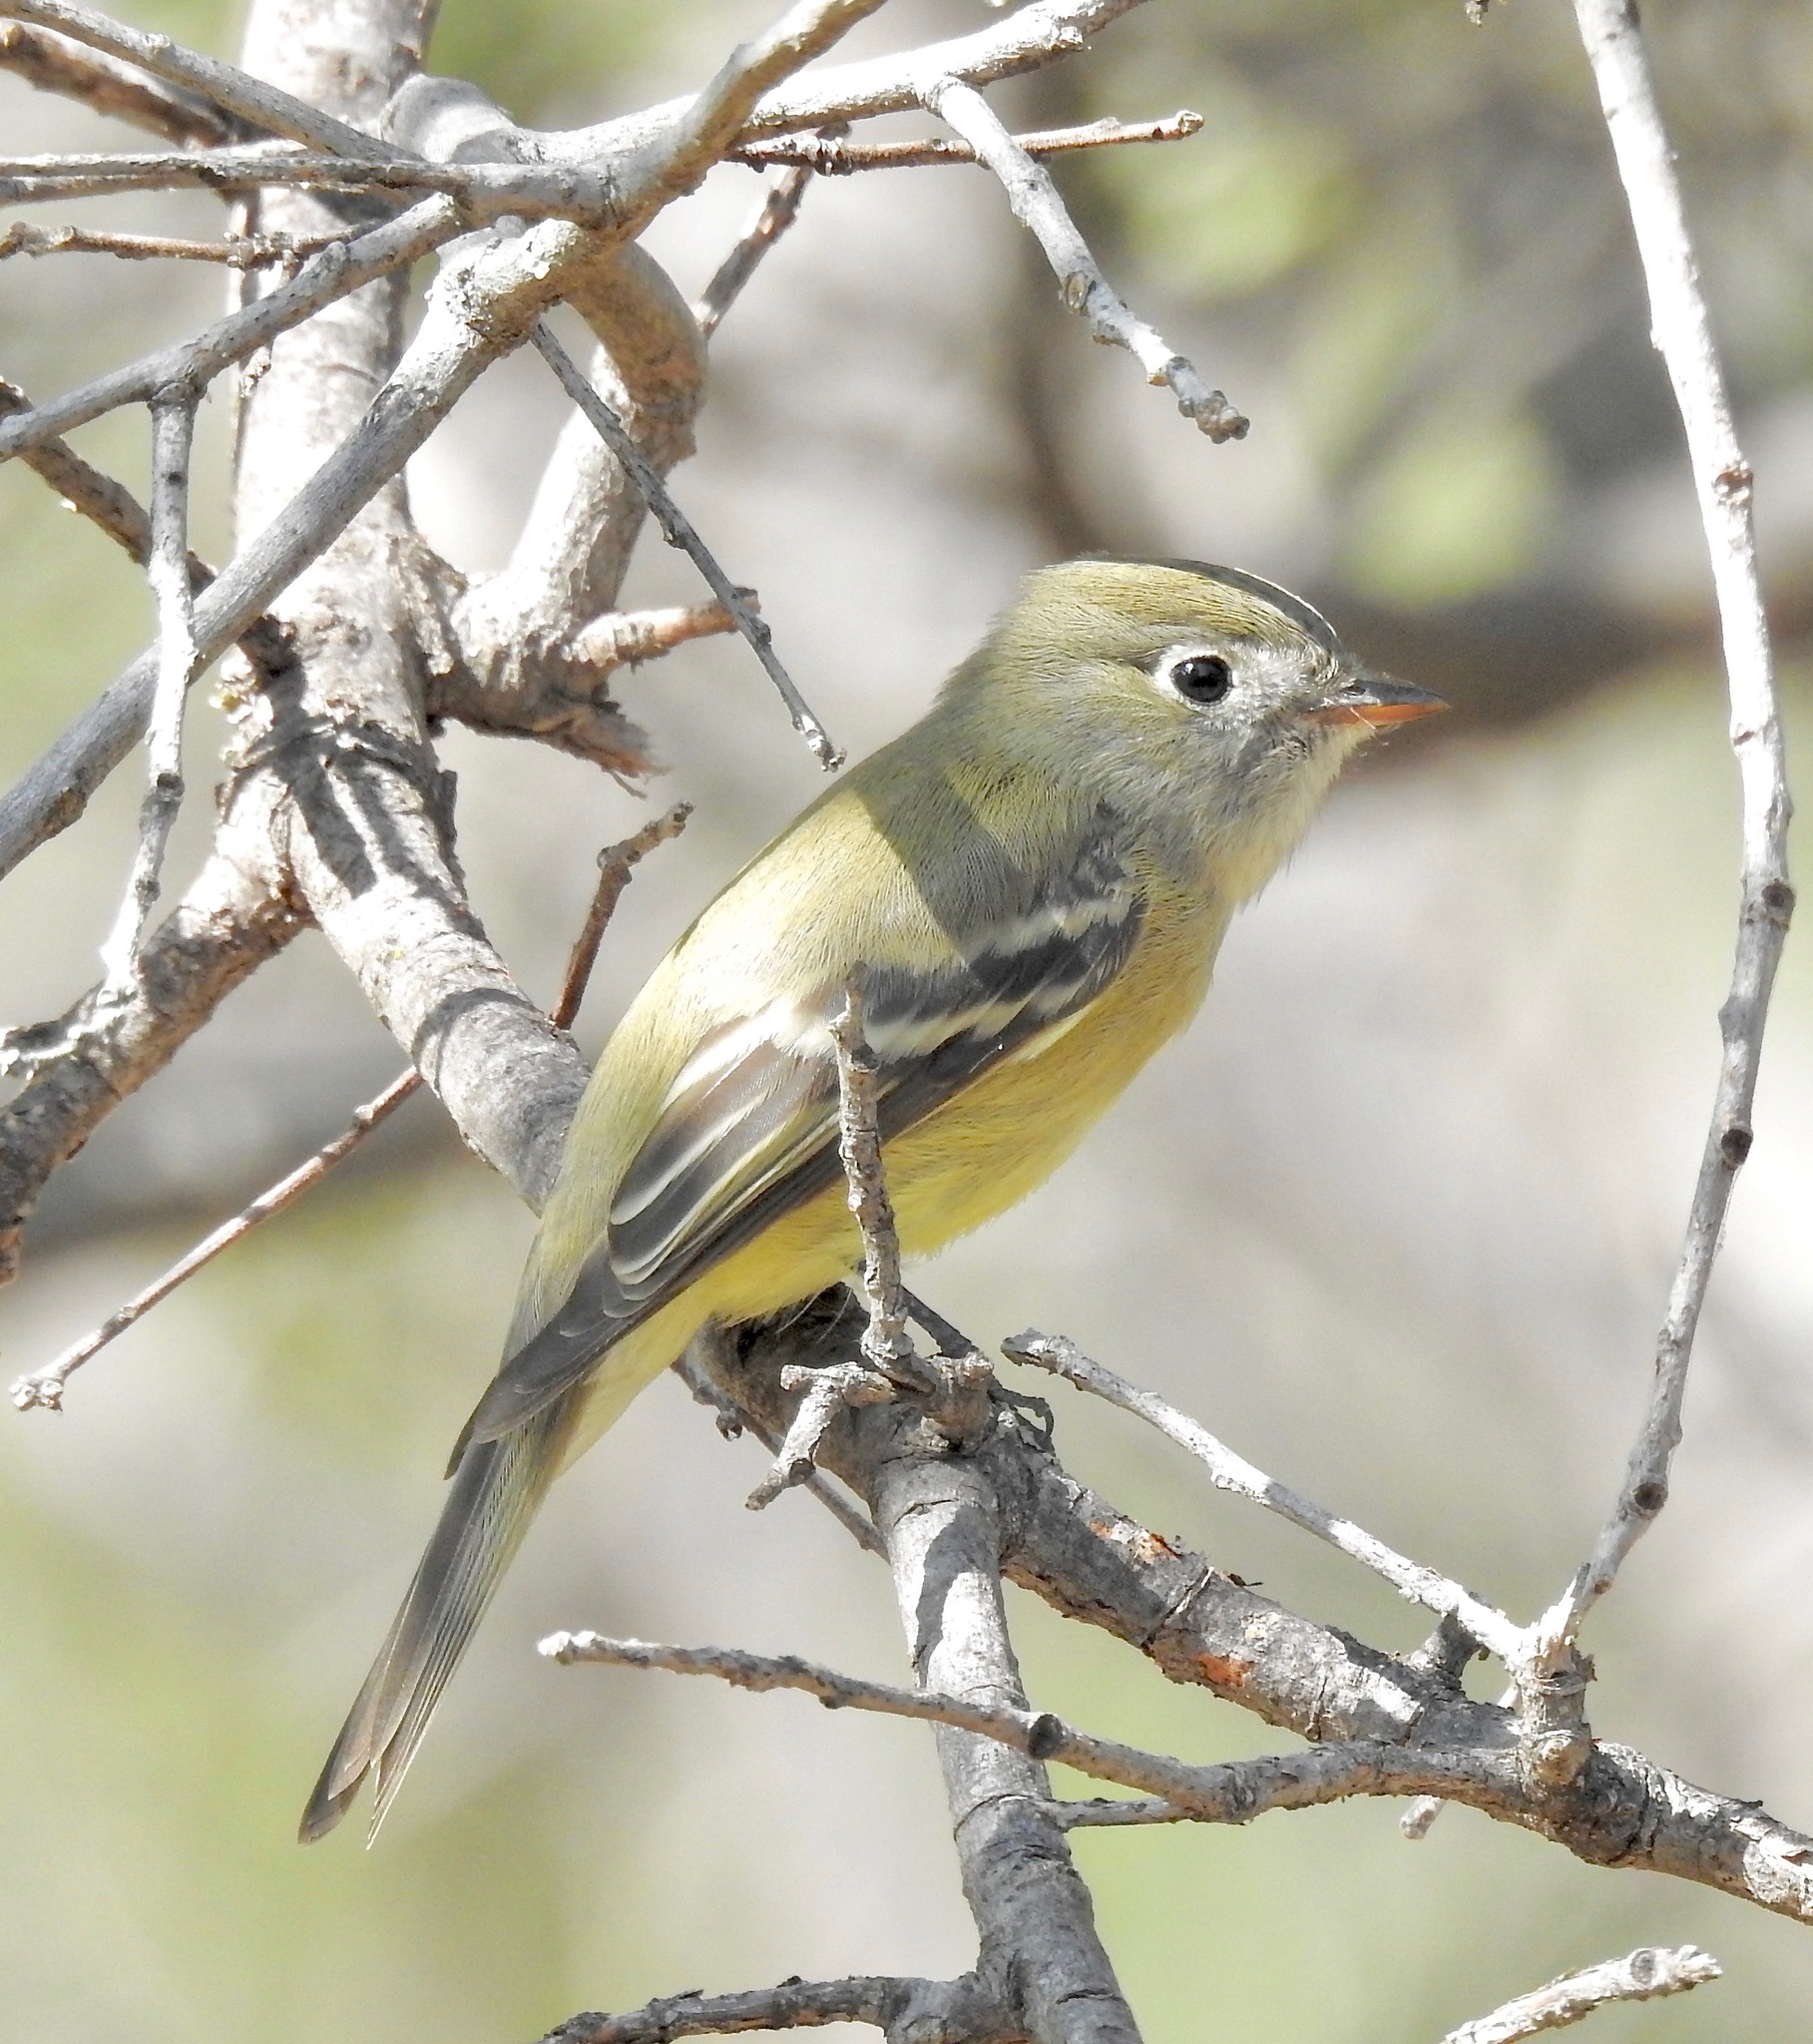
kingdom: Animalia
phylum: Chordata
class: Aves
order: Passeriformes
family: Tyrannidae
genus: Empidonax
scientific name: Empidonax hammondii
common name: Hammond's flycatcher
